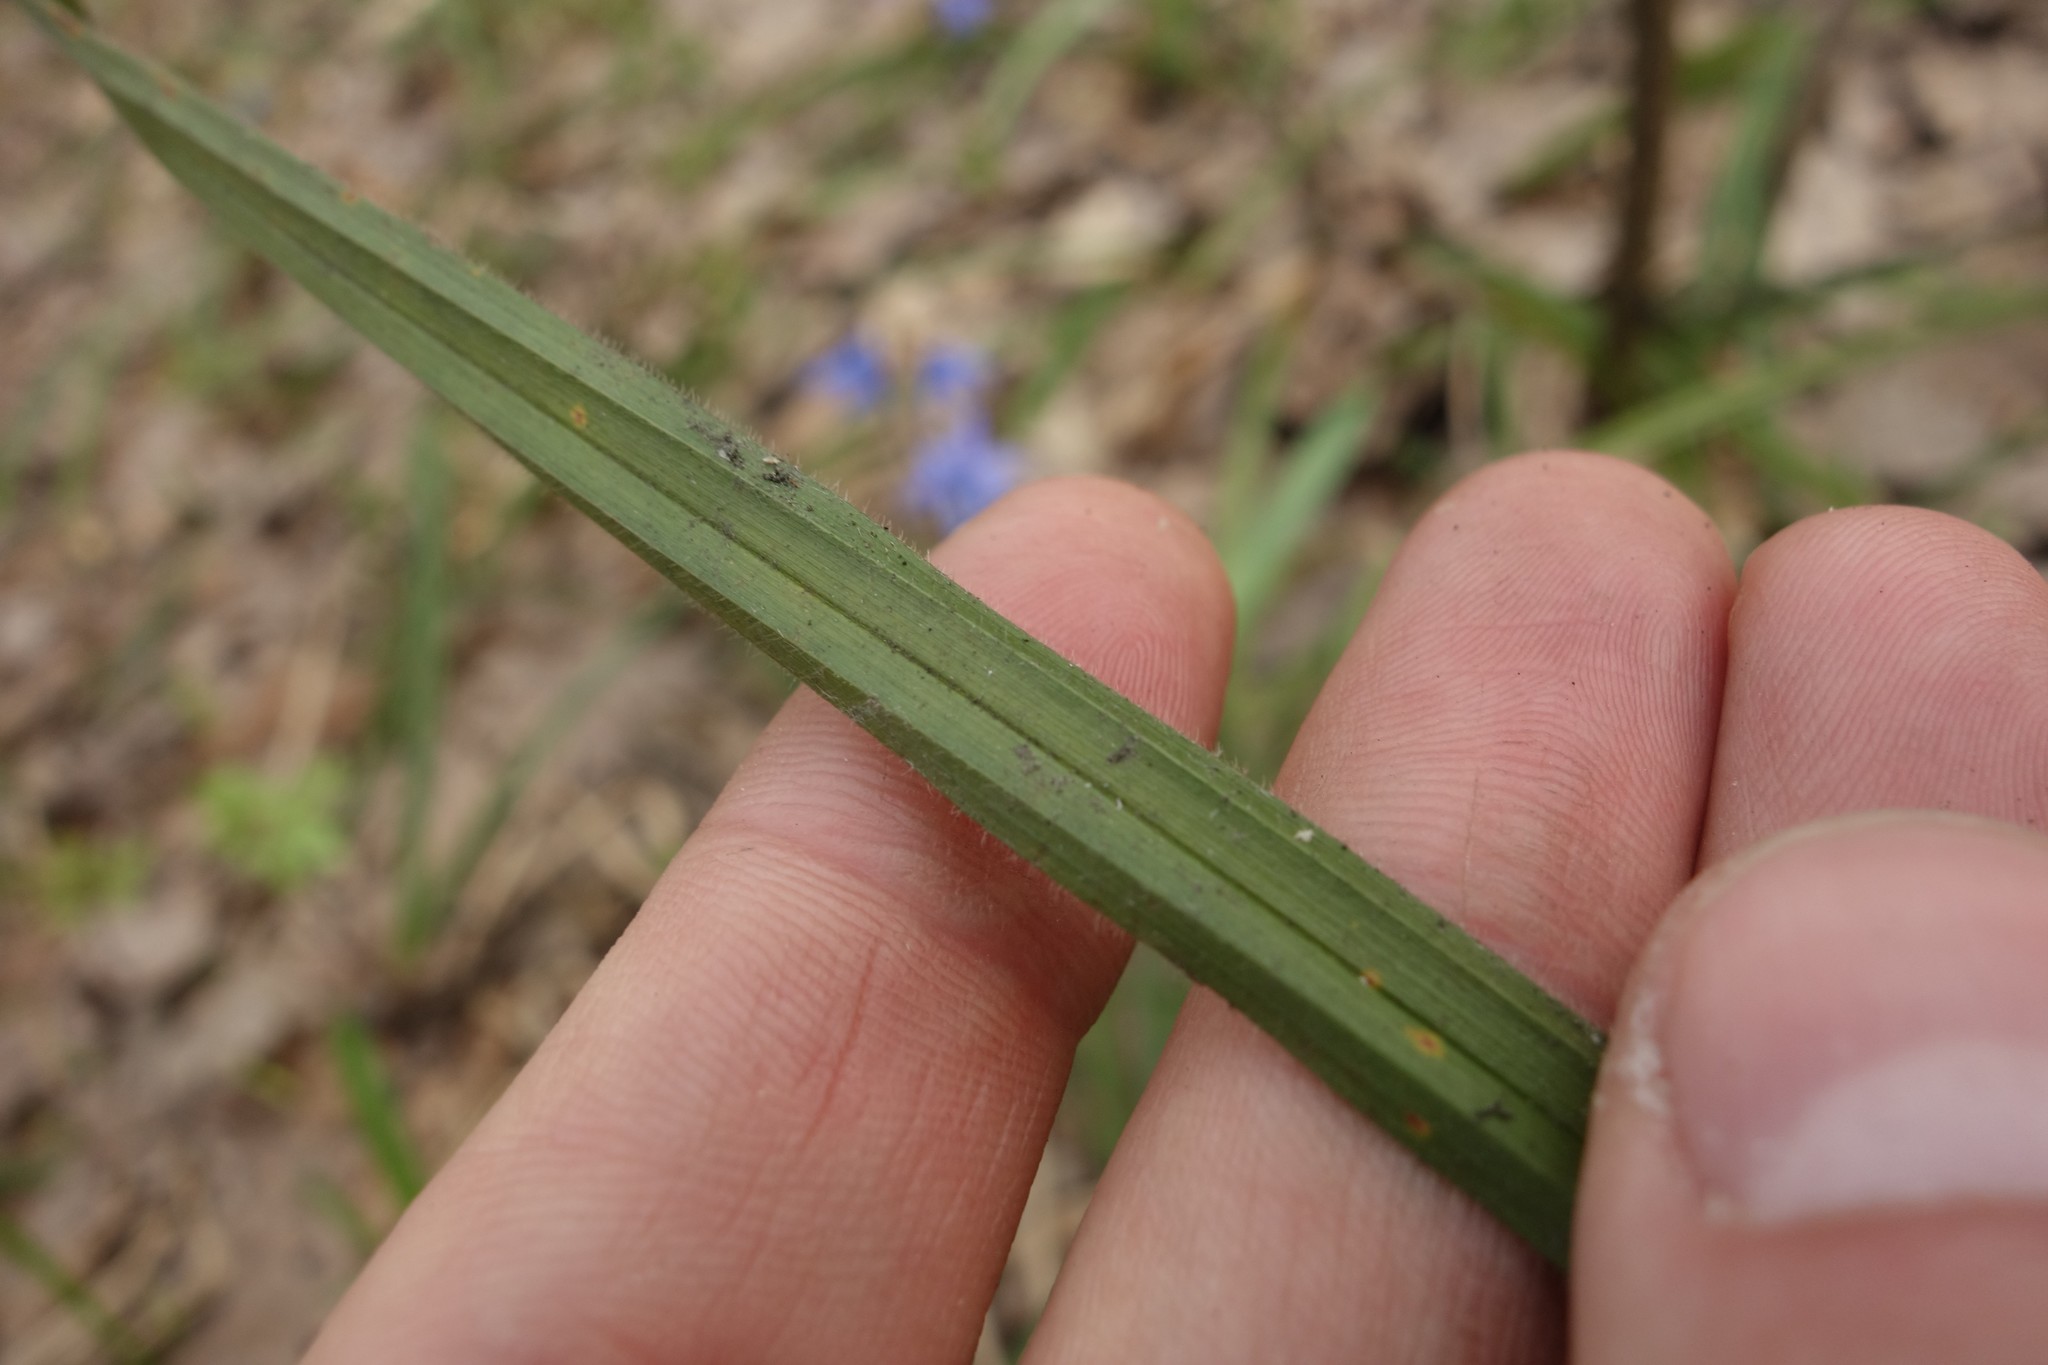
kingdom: Plantae
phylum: Tracheophyta
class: Liliopsida
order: Poales
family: Cyperaceae
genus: Carex
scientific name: Carex pilosa
